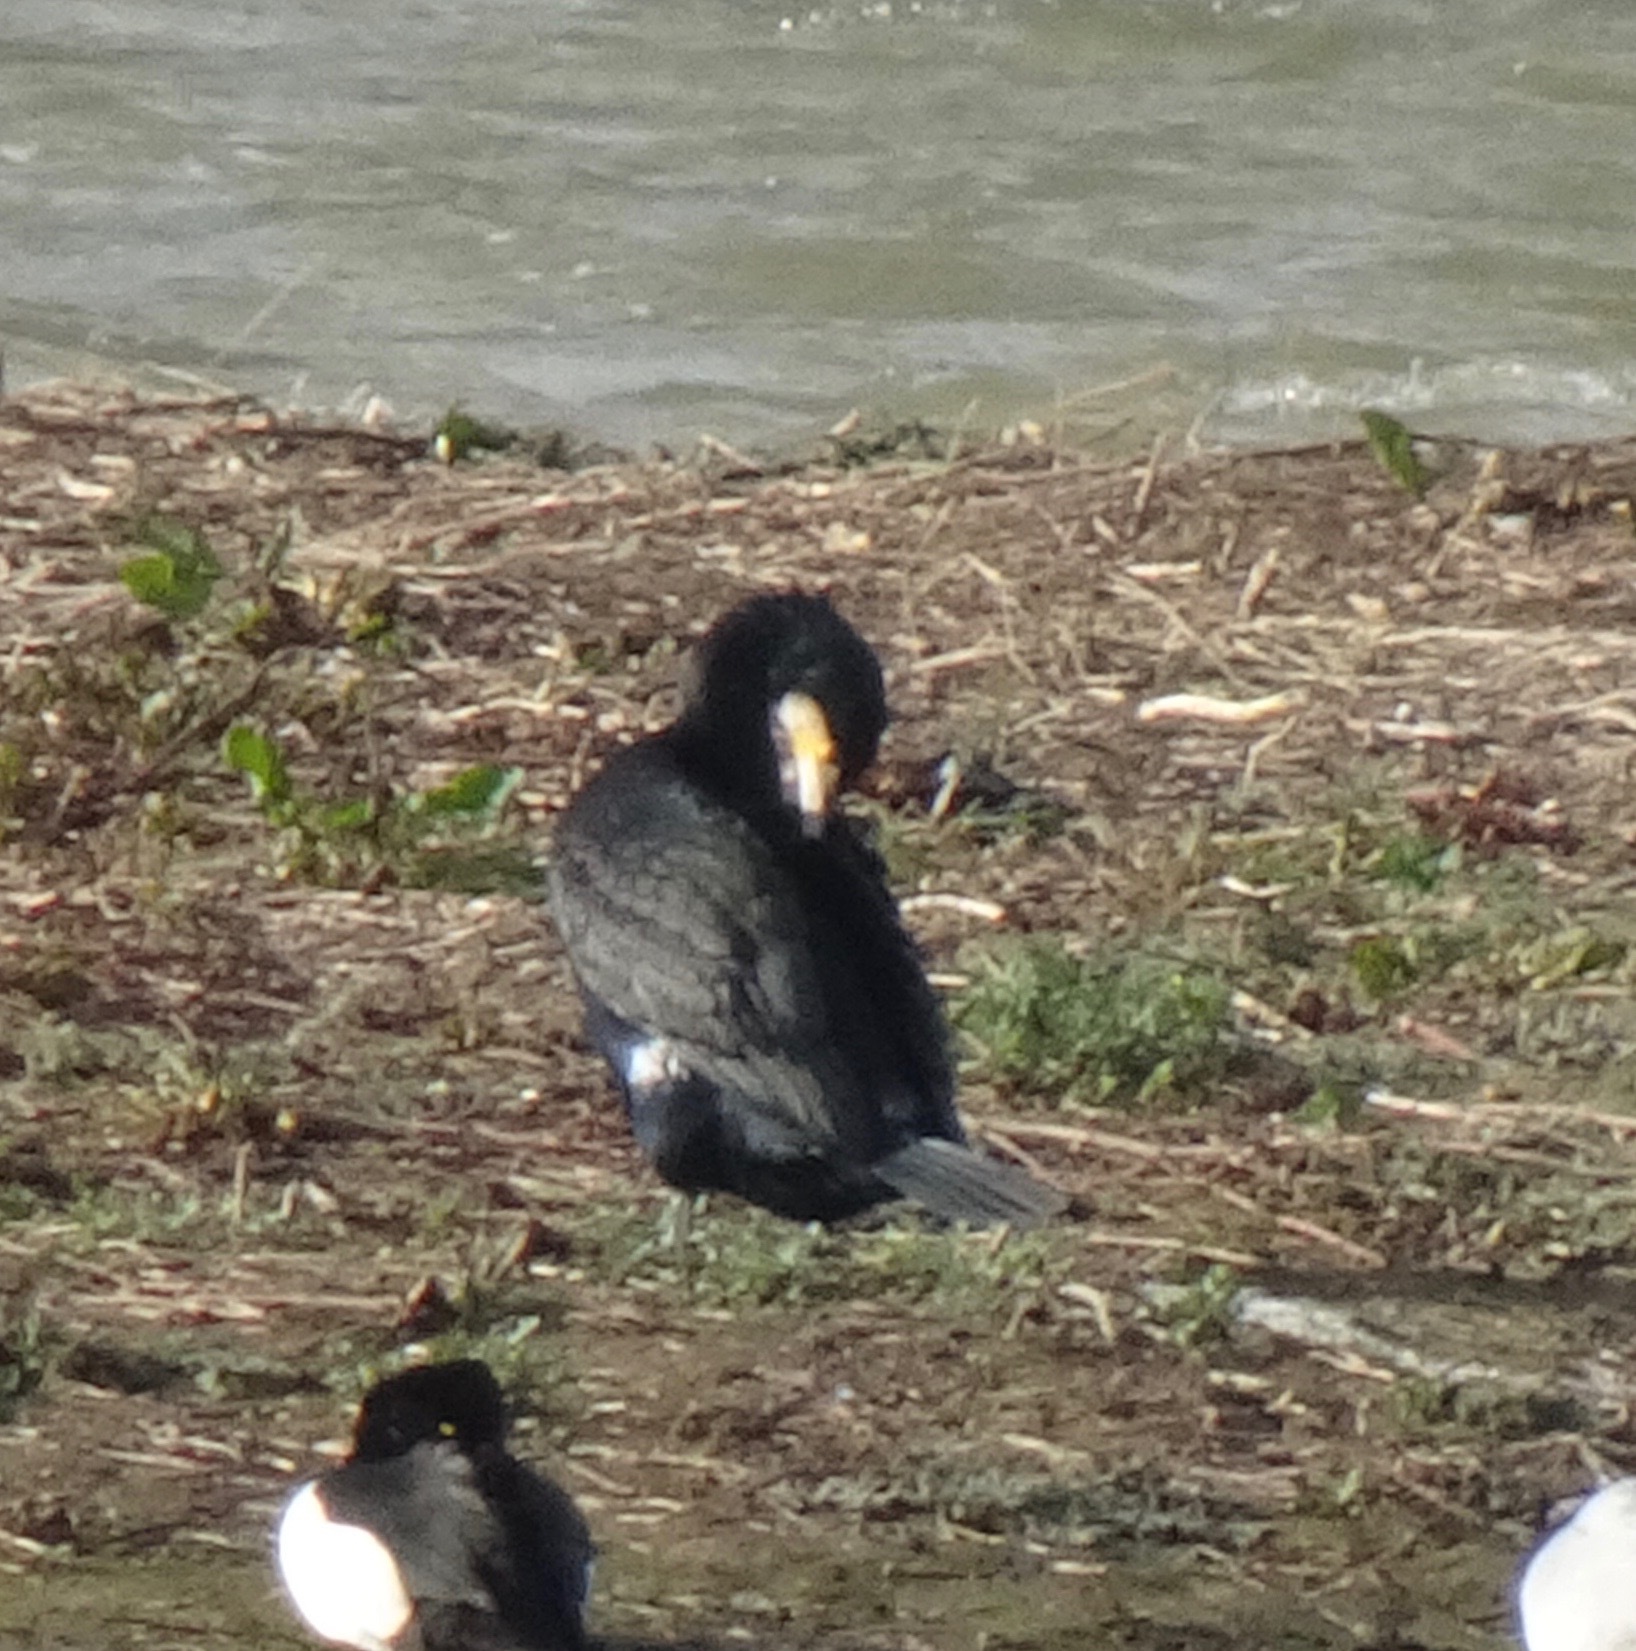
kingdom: Animalia
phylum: Chordata
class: Aves
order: Suliformes
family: Phalacrocoracidae
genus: Phalacrocorax
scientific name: Phalacrocorax carbo
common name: Great cormorant
